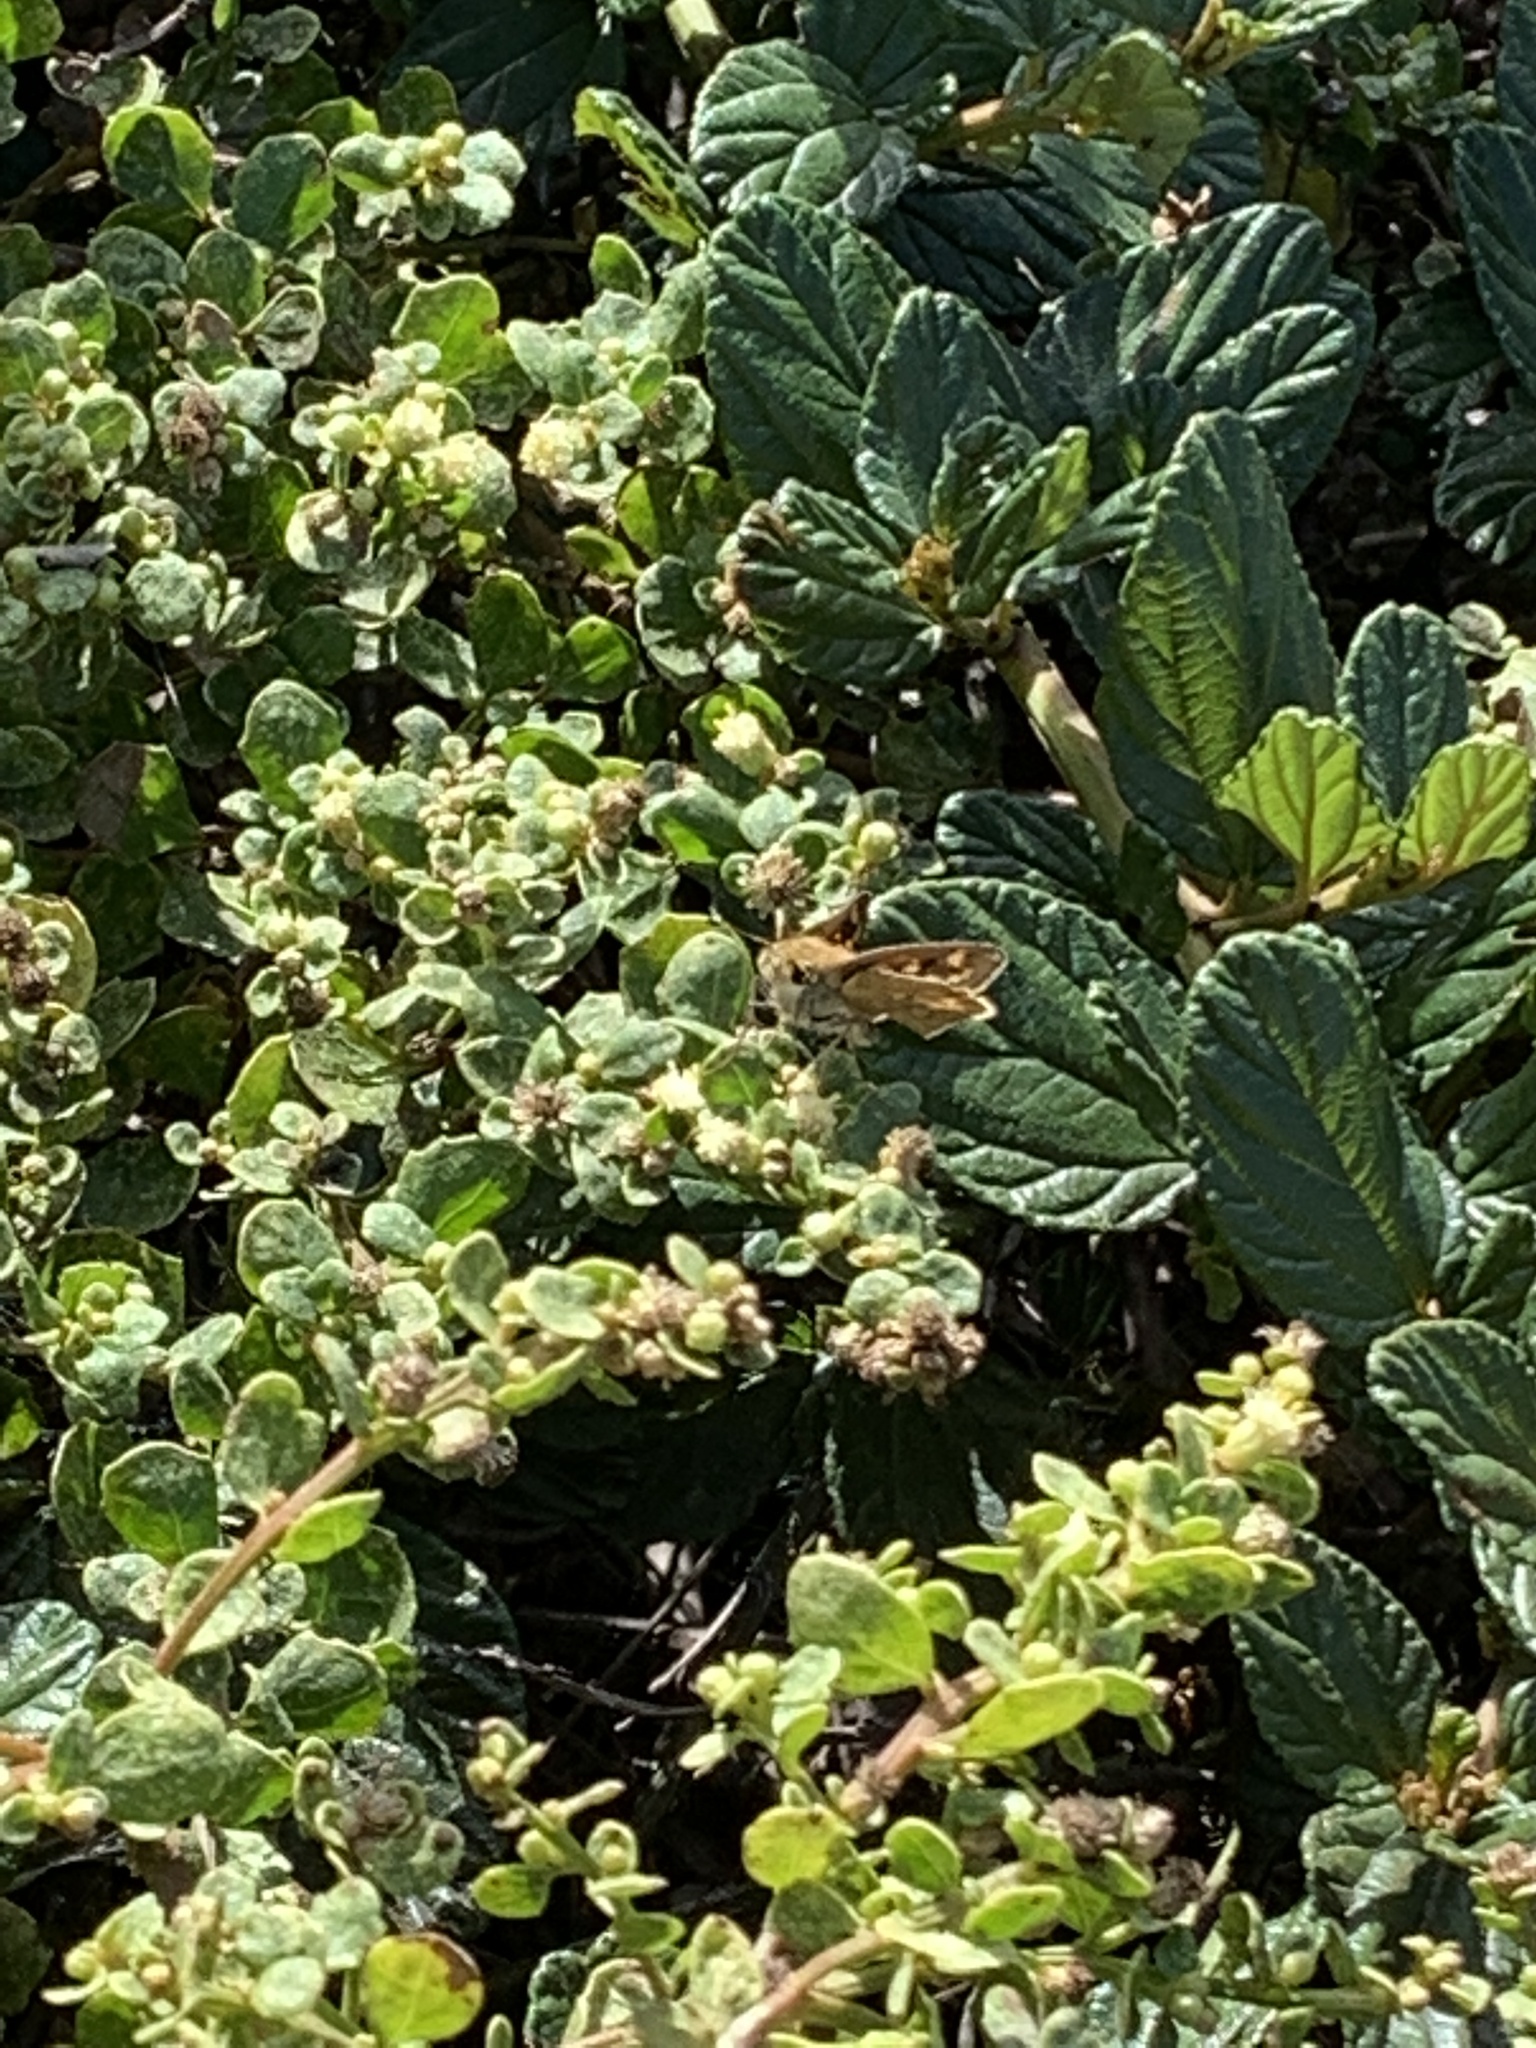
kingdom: Animalia
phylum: Arthropoda
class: Insecta
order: Lepidoptera
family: Hesperiidae
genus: Hylephila
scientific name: Hylephila phyleus
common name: Fiery skipper
